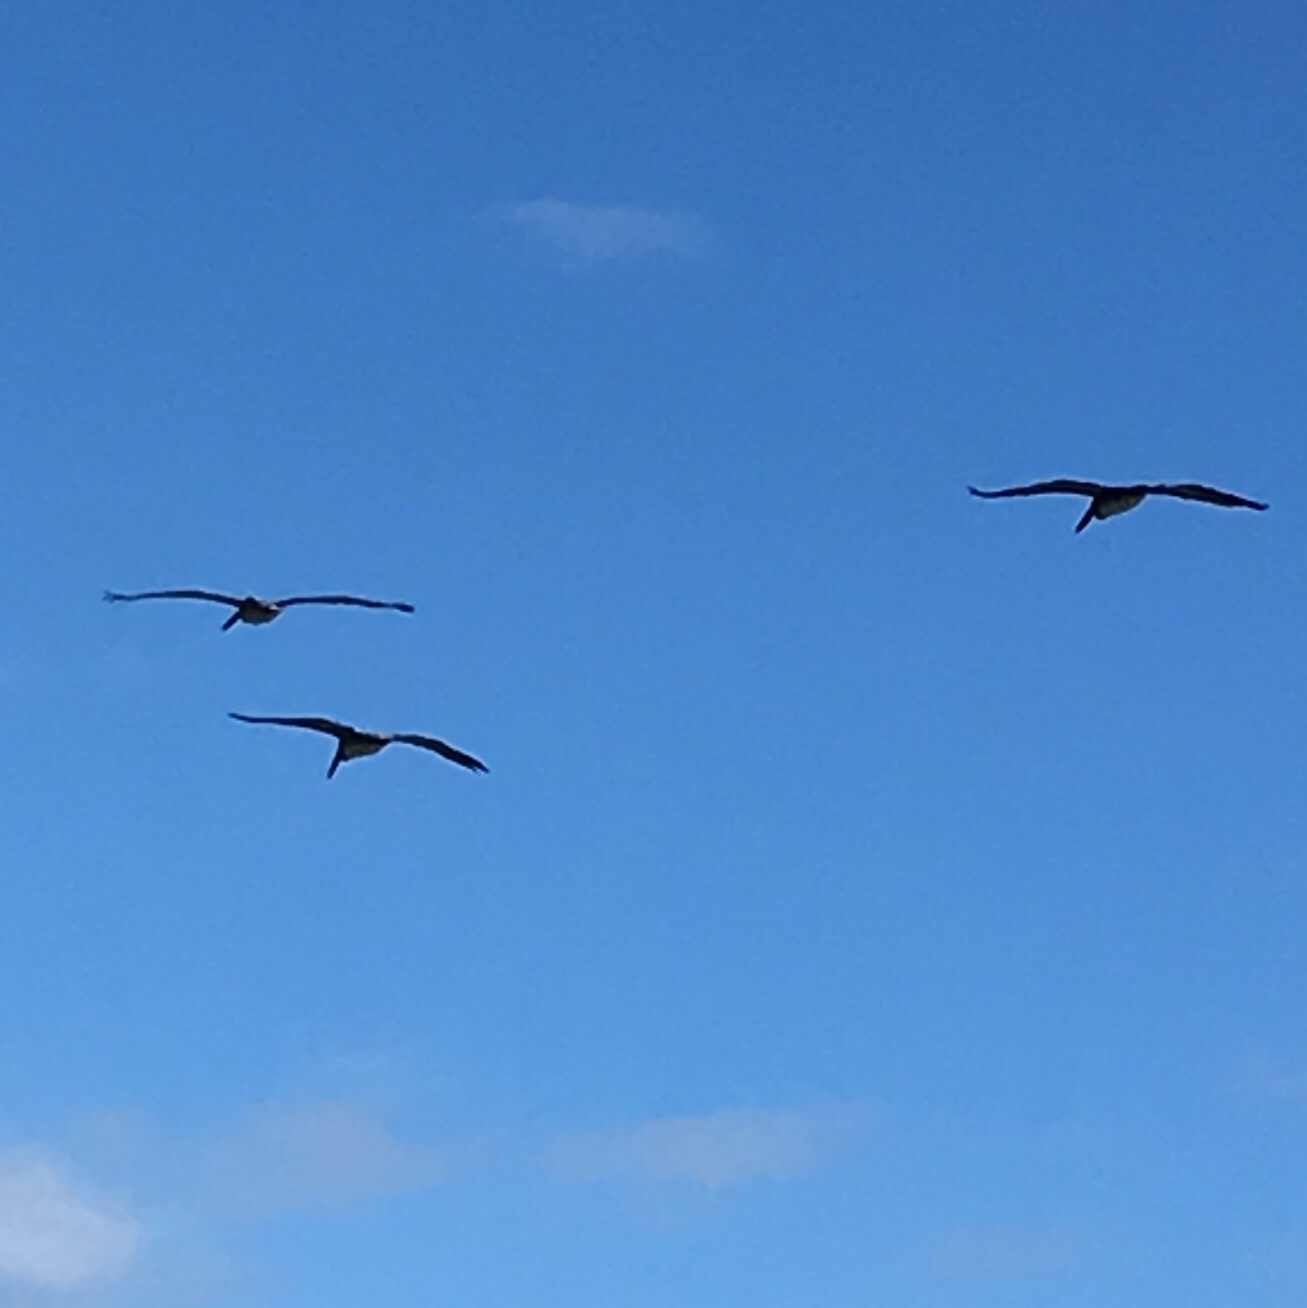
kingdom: Animalia
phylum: Chordata
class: Aves
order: Pelecaniformes
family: Pelecanidae
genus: Pelecanus
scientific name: Pelecanus occidentalis
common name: Brown pelican
